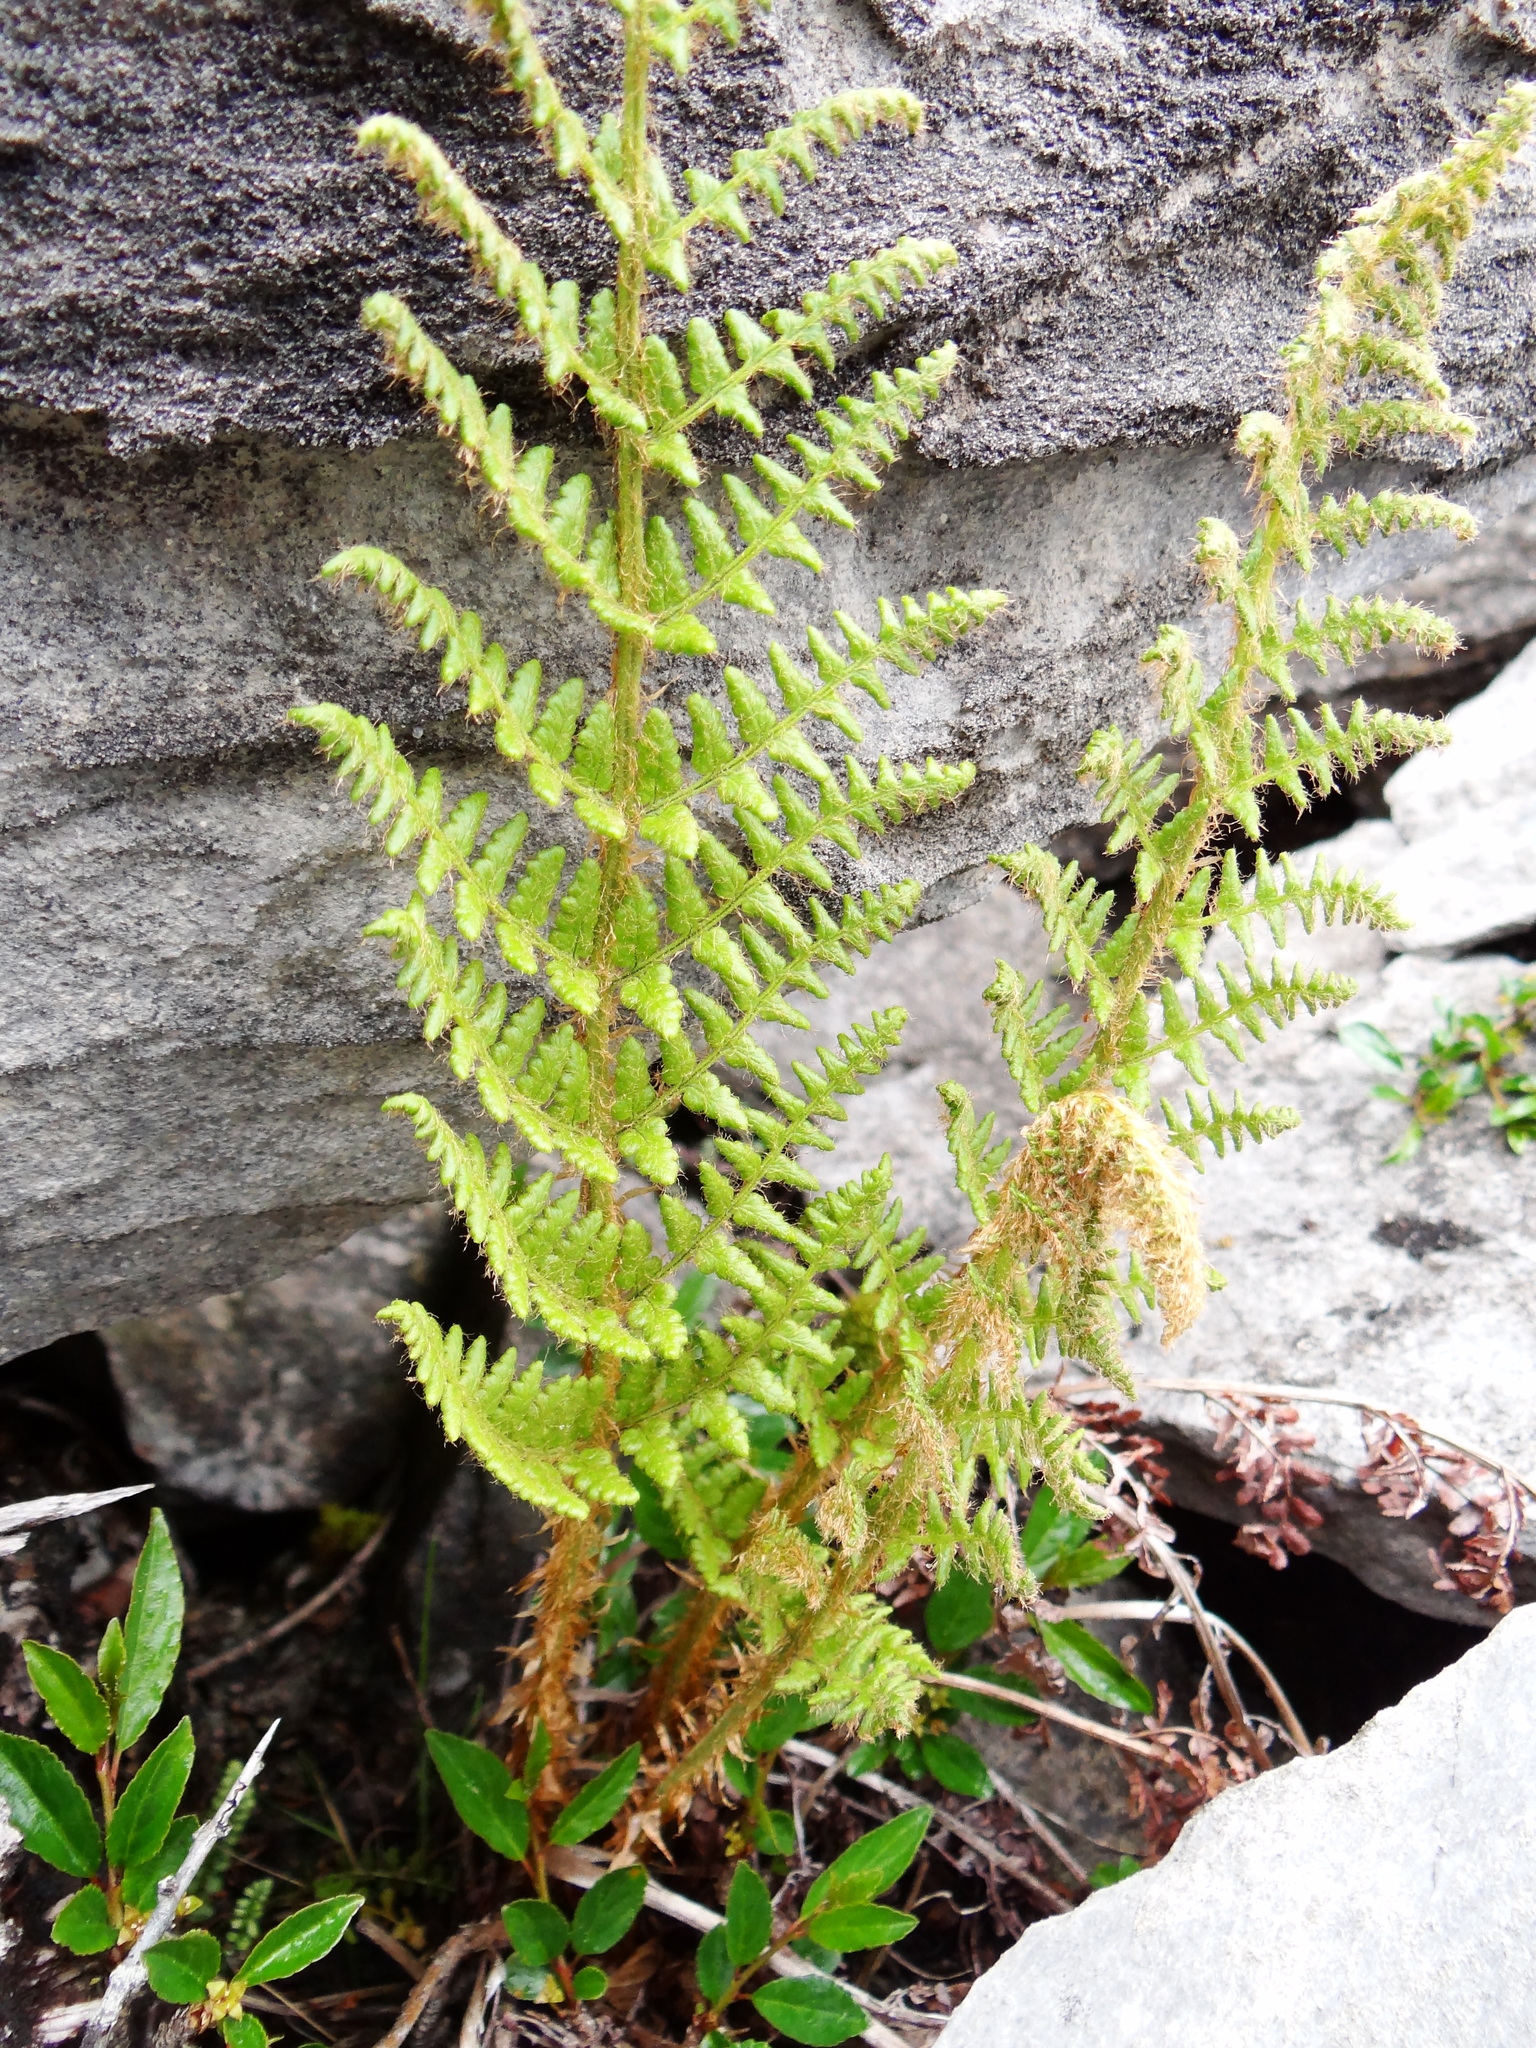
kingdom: Plantae
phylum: Tracheophyta
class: Polypodiopsida
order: Polypodiales
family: Dryopteridaceae
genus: Dryopteris
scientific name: Dryopteris komarovii
